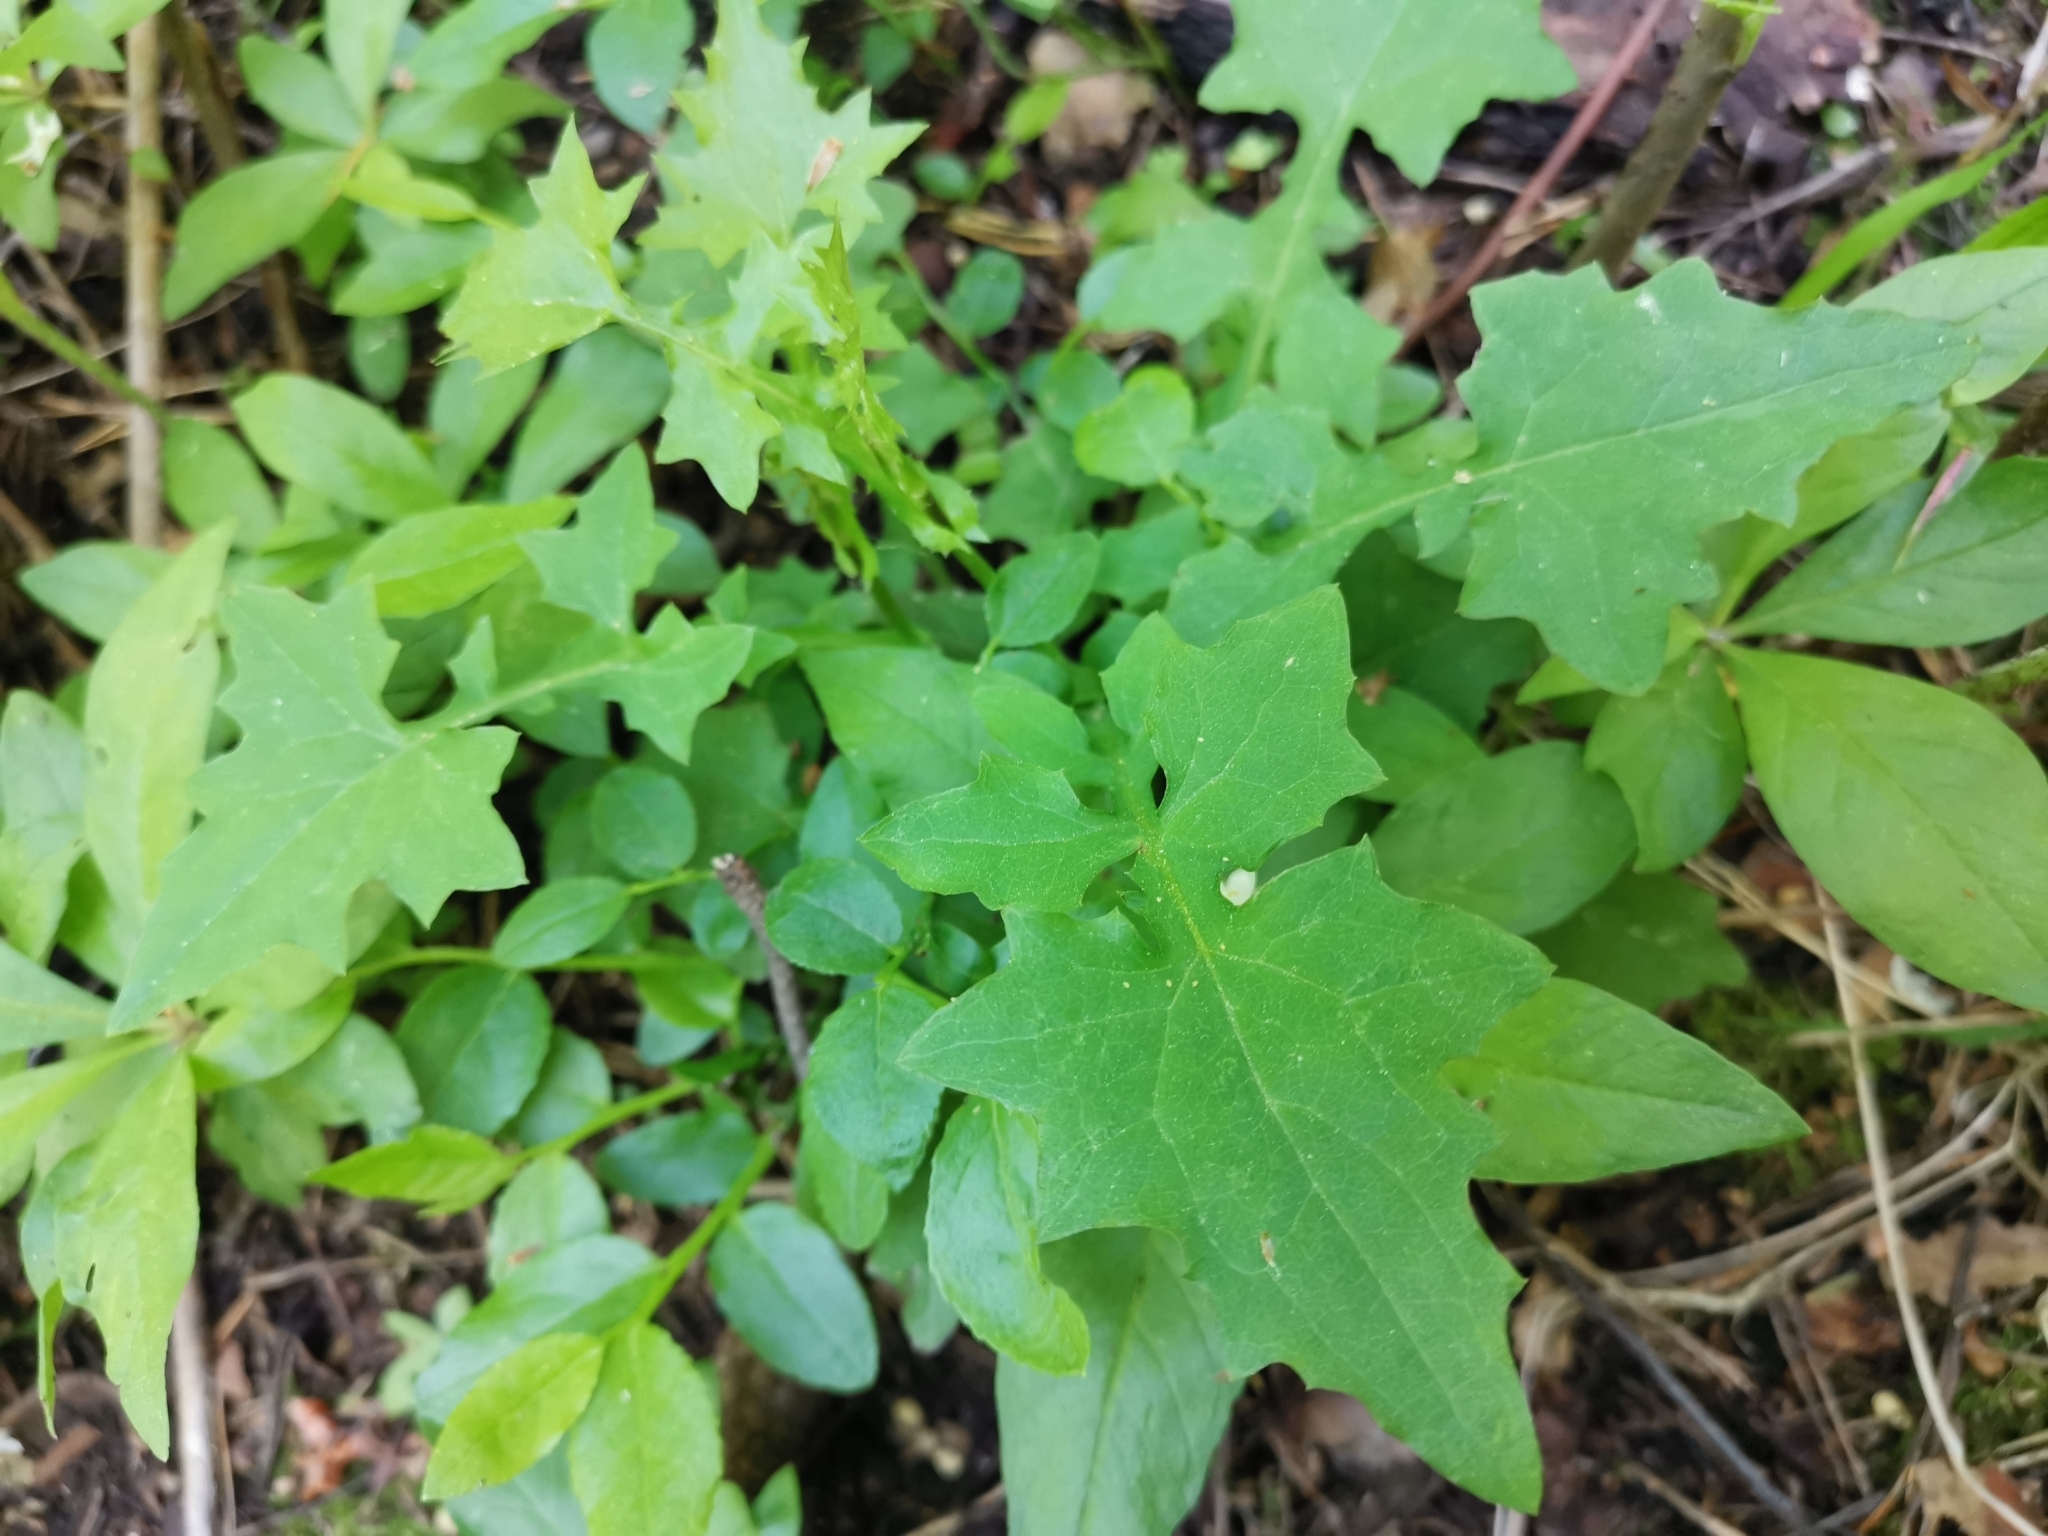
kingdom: Plantae
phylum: Tracheophyta
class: Magnoliopsida
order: Asterales
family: Asteraceae
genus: Mycelis
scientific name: Mycelis muralis
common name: Wall lettuce
